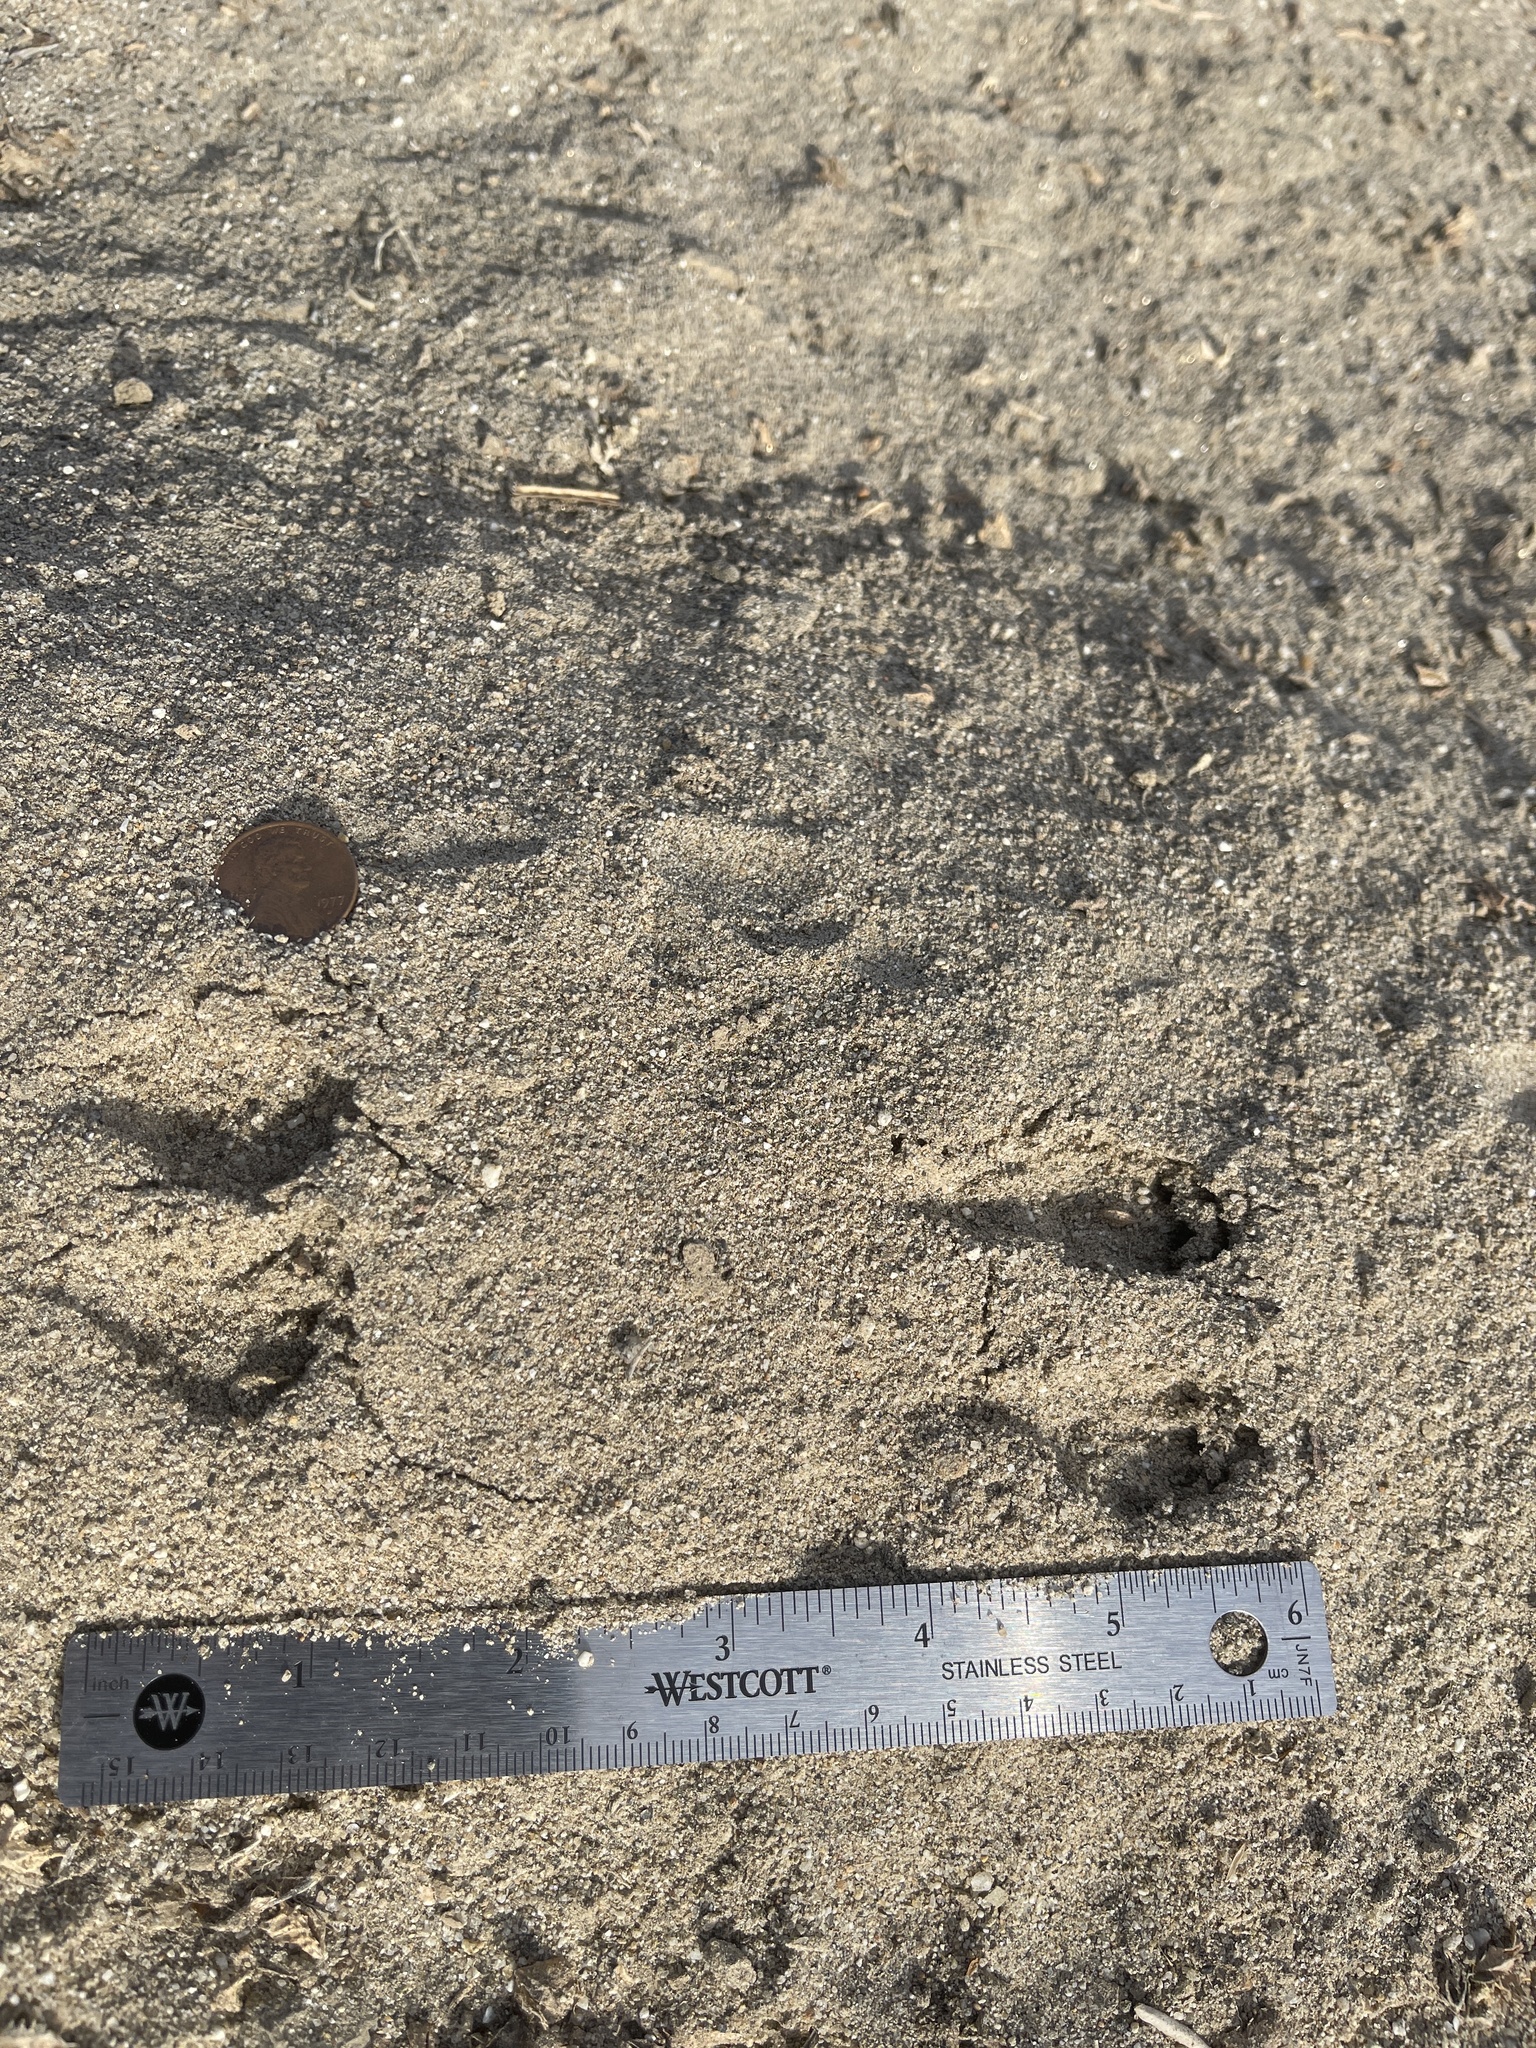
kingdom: Animalia
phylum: Chordata
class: Mammalia
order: Rodentia
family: Heteromyidae
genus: Dipodomys
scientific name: Dipodomys deserti
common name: Desert kangaroo rat
